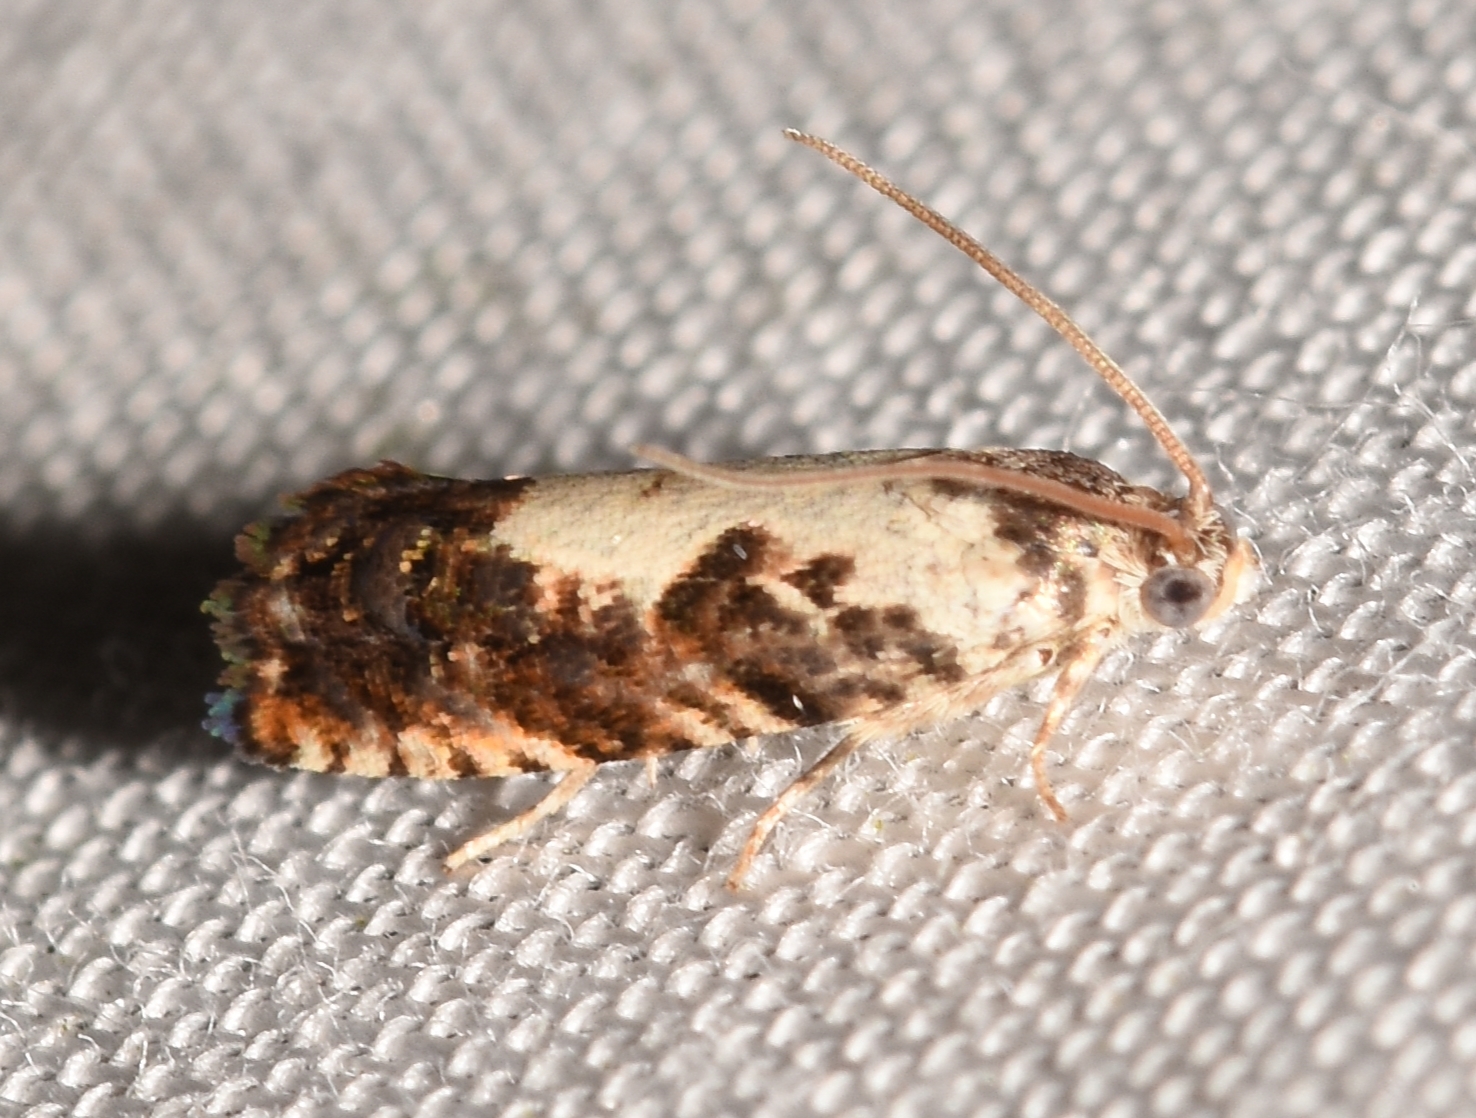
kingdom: Animalia
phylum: Arthropoda
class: Insecta
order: Lepidoptera
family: Tortricidae
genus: Pammene
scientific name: Pammene felicitana
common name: Happy pammene
